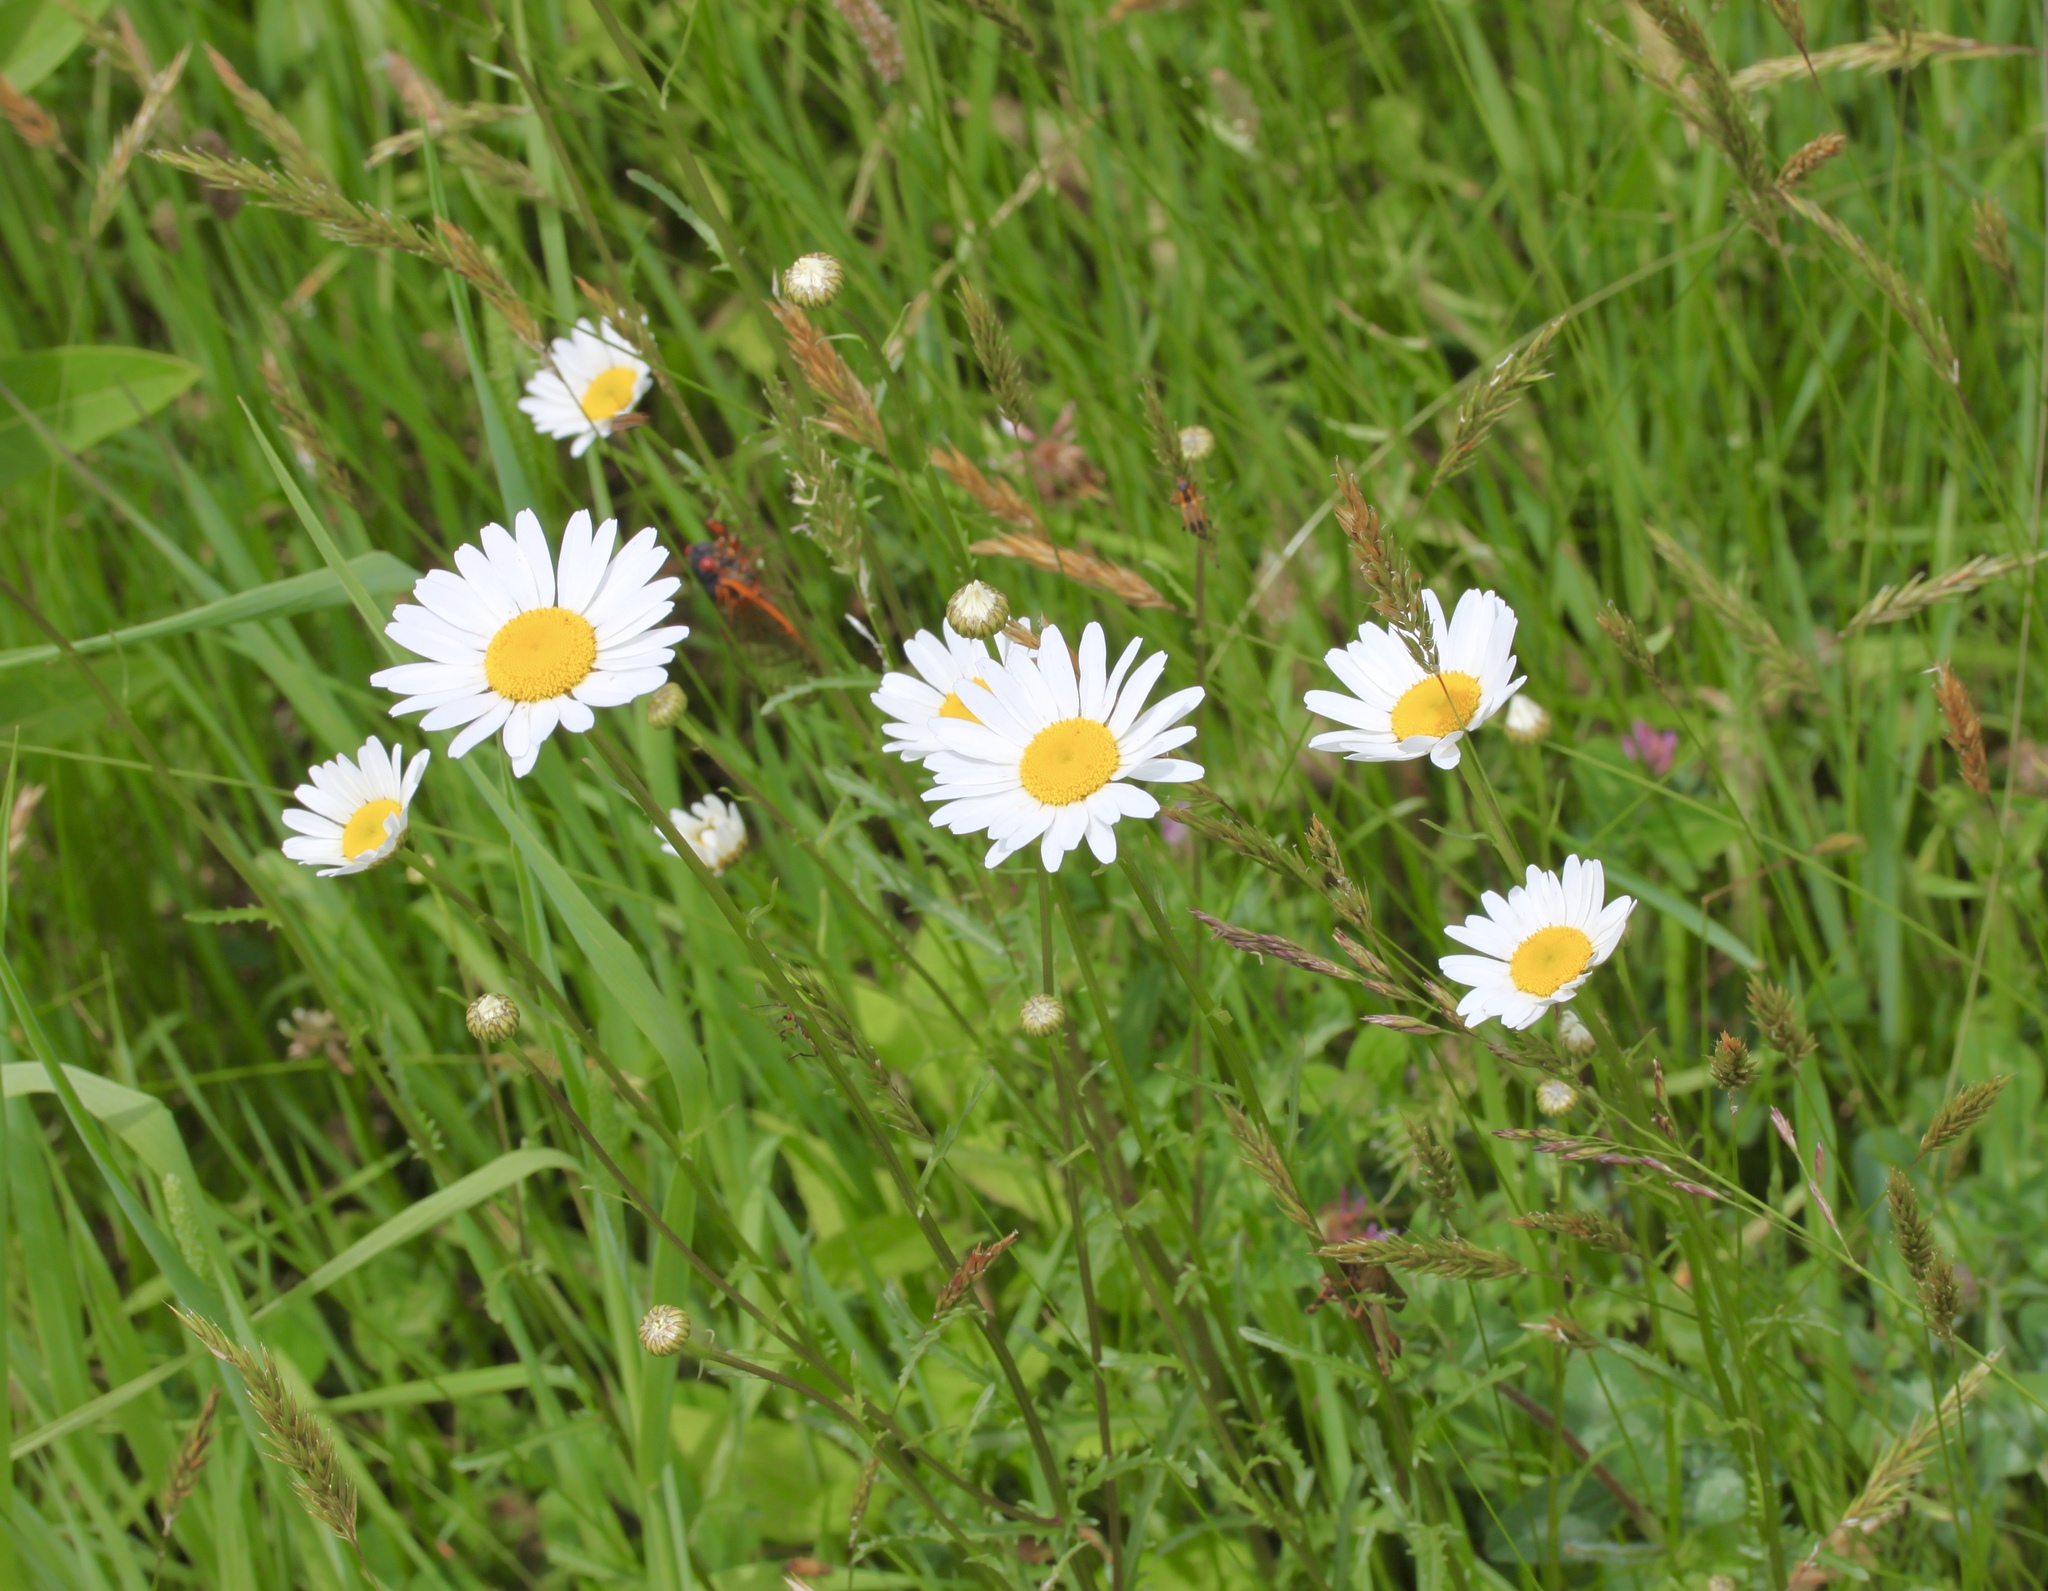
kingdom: Plantae
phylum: Tracheophyta
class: Magnoliopsida
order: Asterales
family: Asteraceae
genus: Leucanthemum
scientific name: Leucanthemum vulgare
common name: Oxeye daisy
